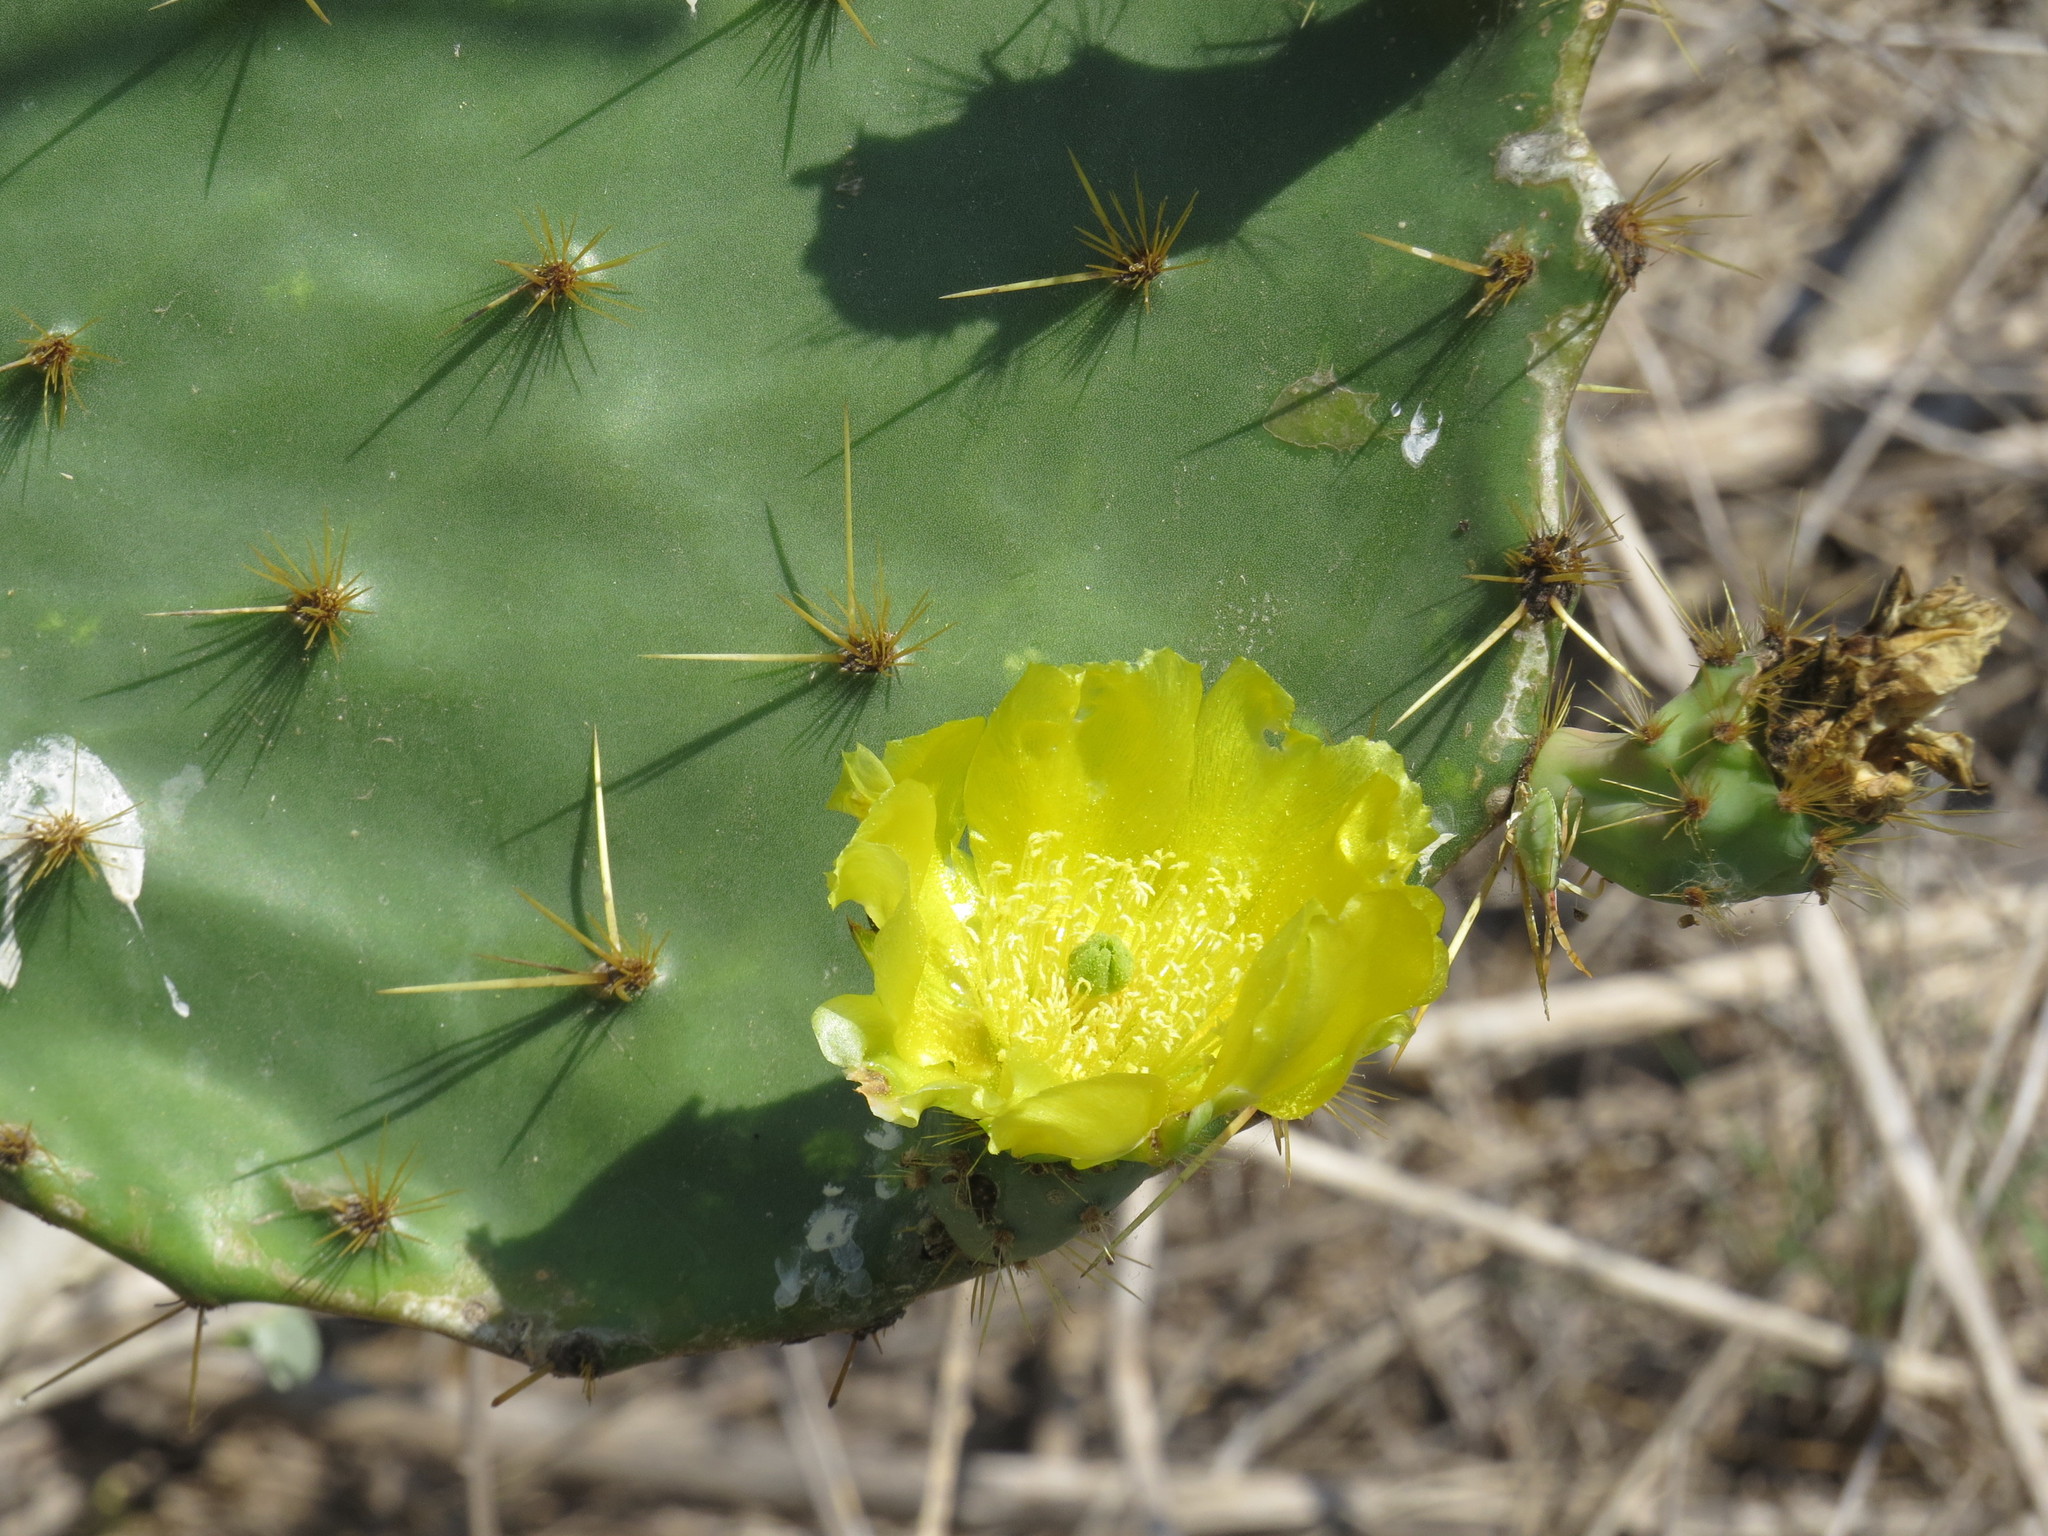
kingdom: Plantae
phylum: Tracheophyta
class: Magnoliopsida
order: Caryophyllales
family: Cactaceae
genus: Opuntia
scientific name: Opuntia alta
